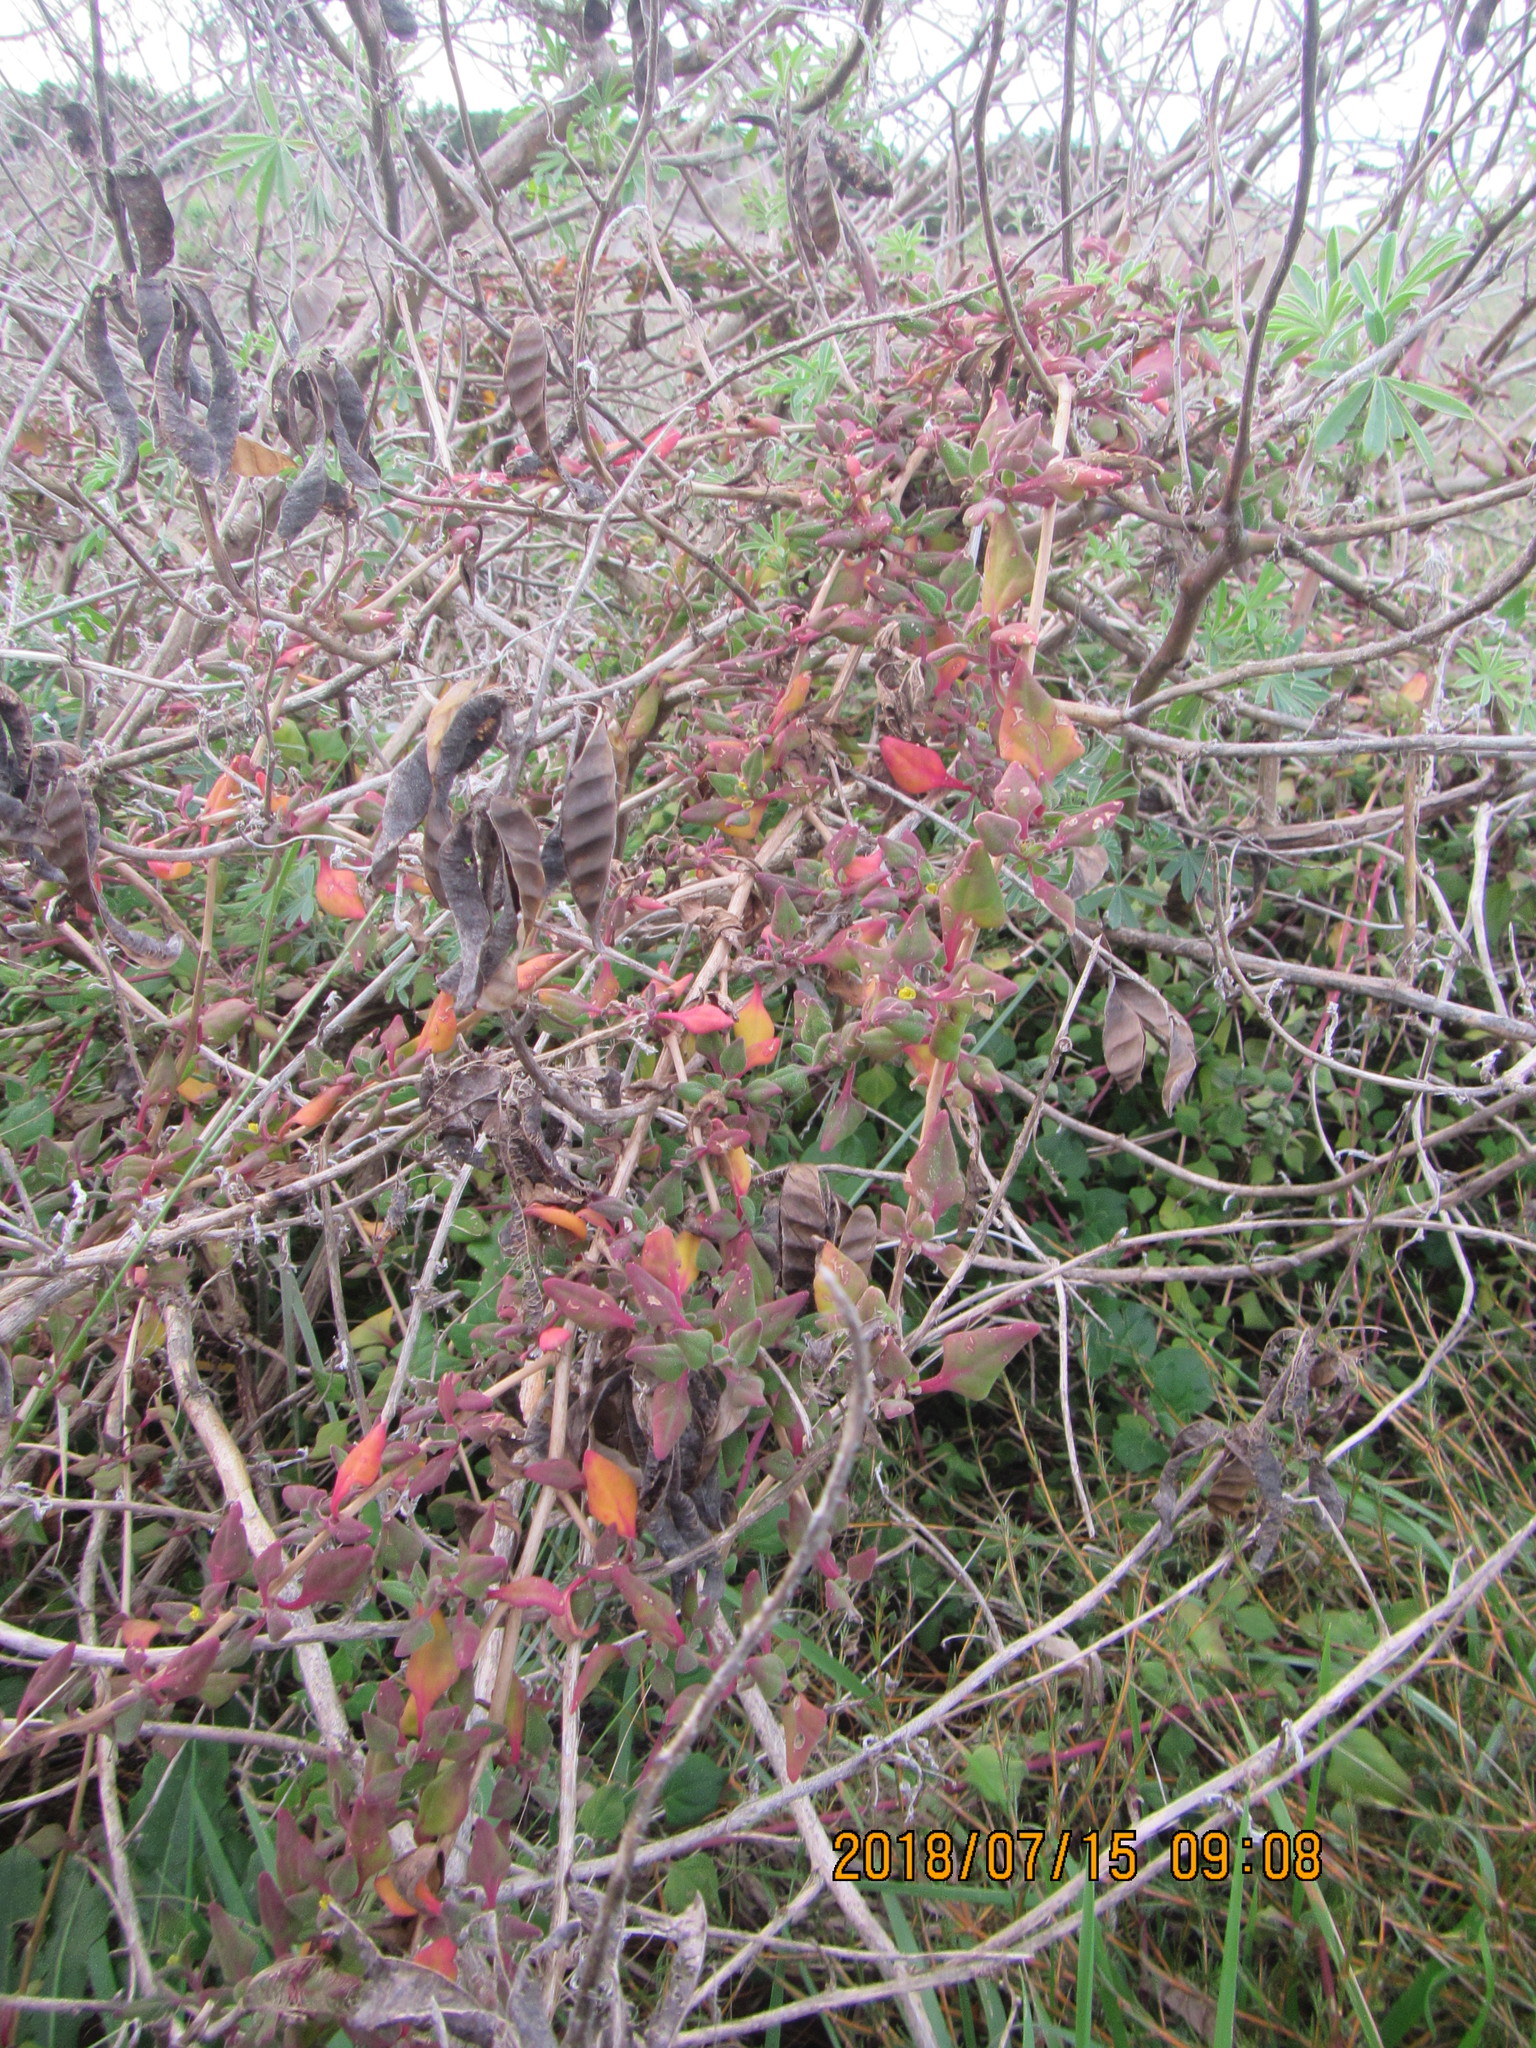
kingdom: Plantae
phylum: Tracheophyta
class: Magnoliopsida
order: Caryophyllales
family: Aizoaceae
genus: Tetragonia
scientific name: Tetragonia implexicoma
